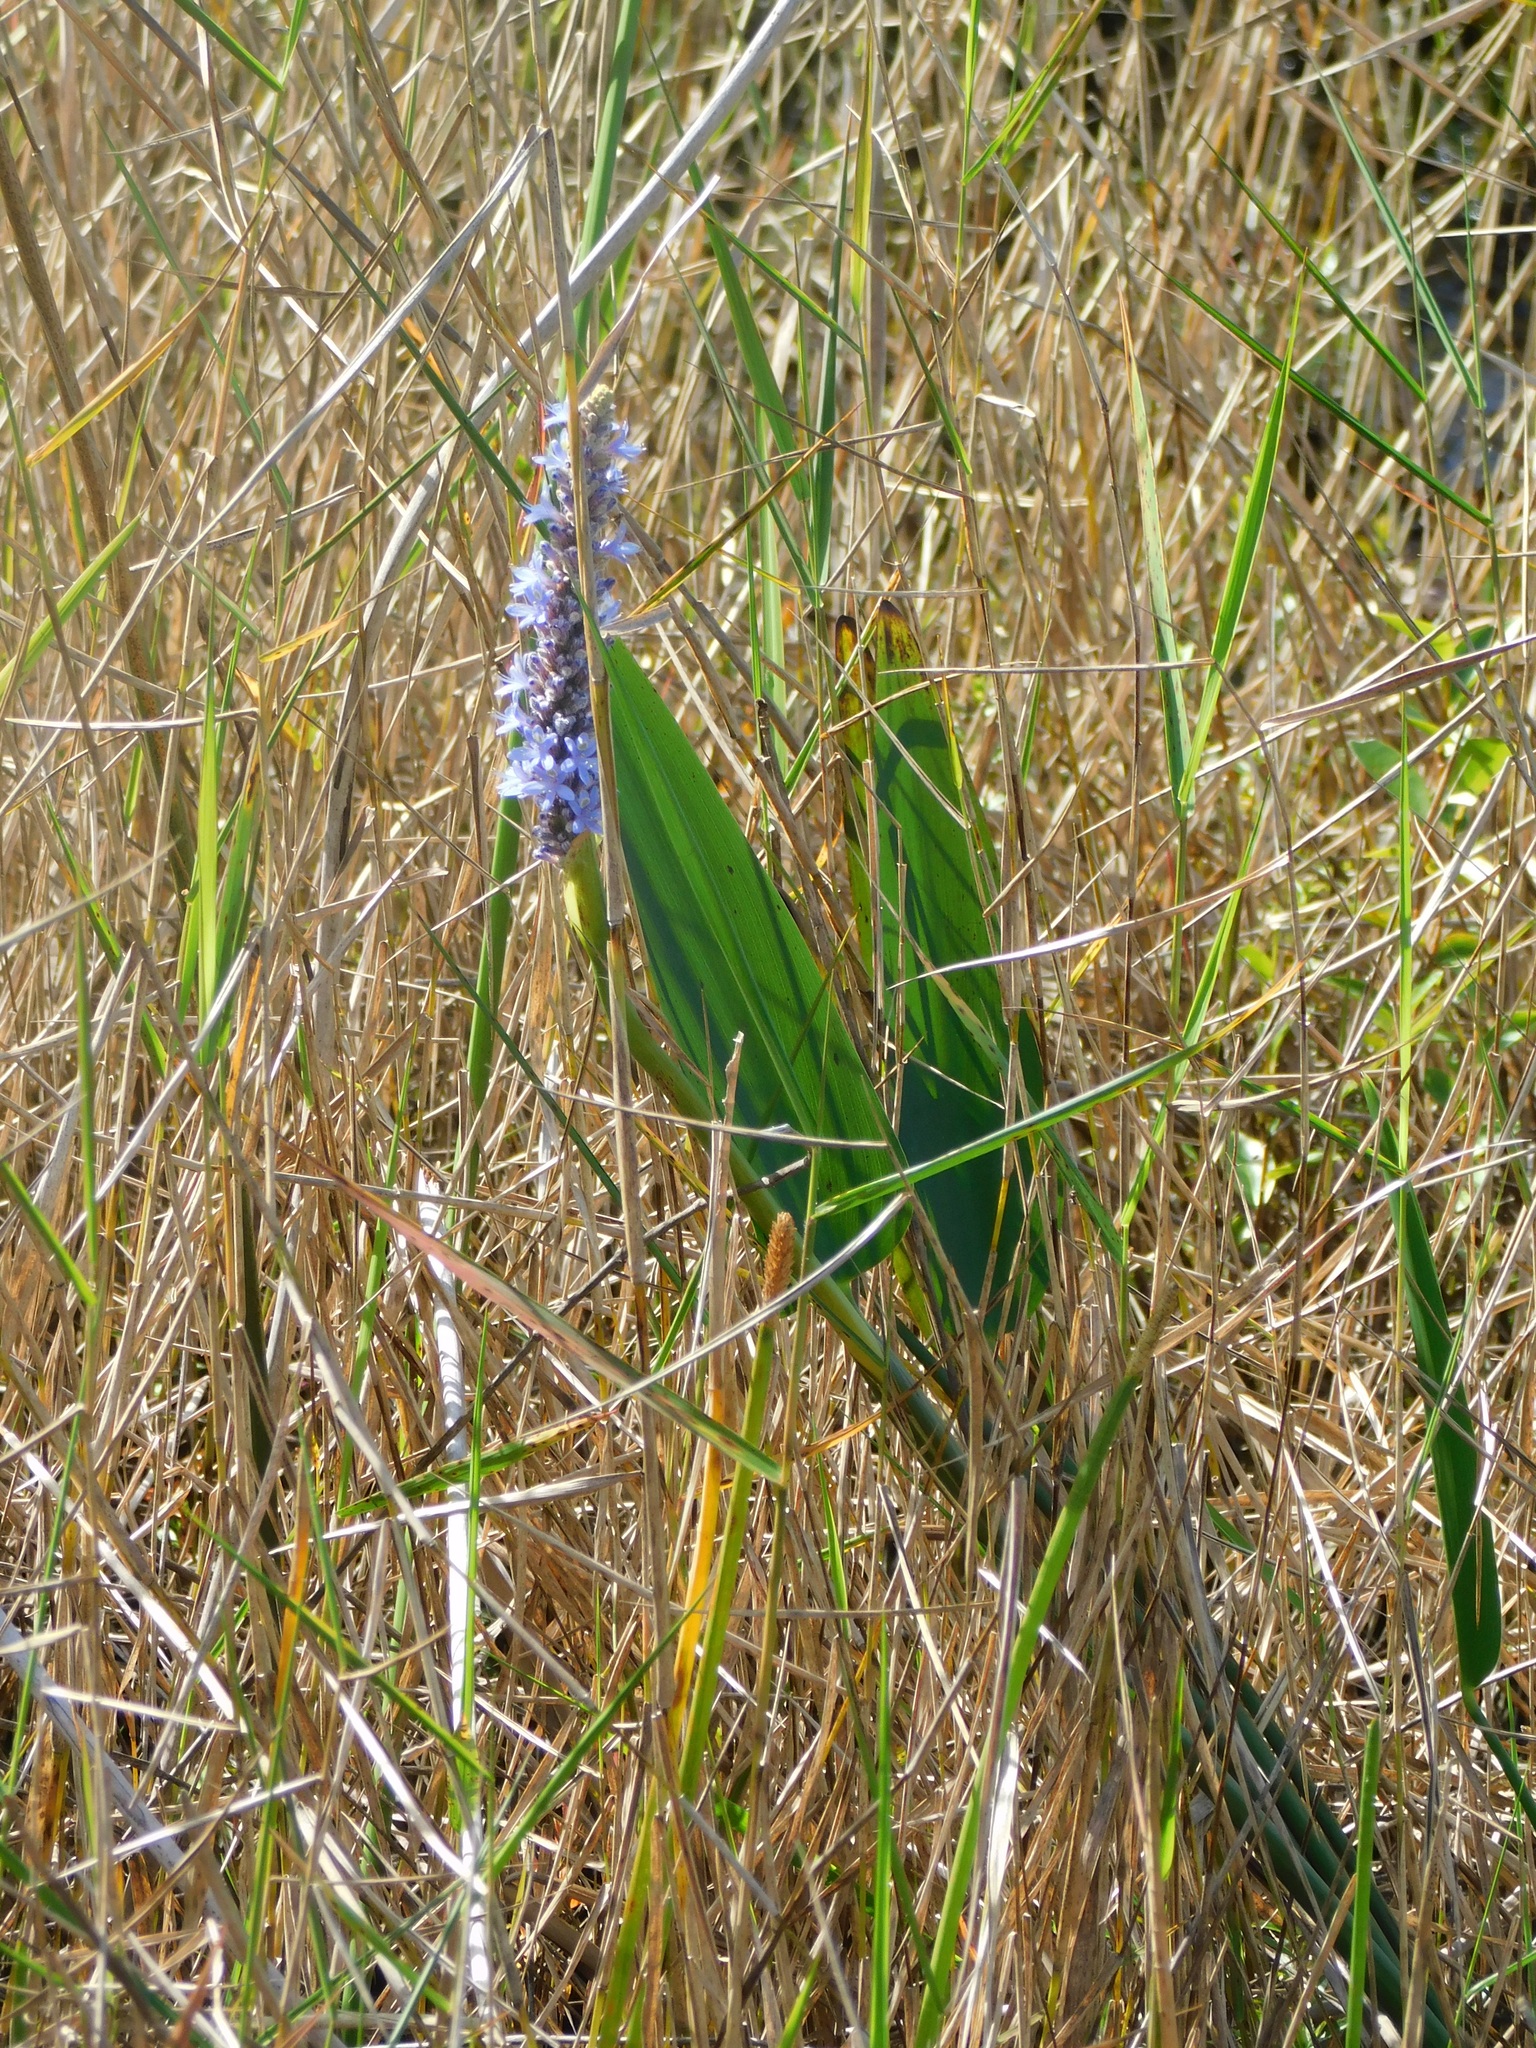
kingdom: Plantae
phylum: Tracheophyta
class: Liliopsida
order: Commelinales
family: Pontederiaceae
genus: Pontederia
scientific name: Pontederia cordata
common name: Pickerelweed
